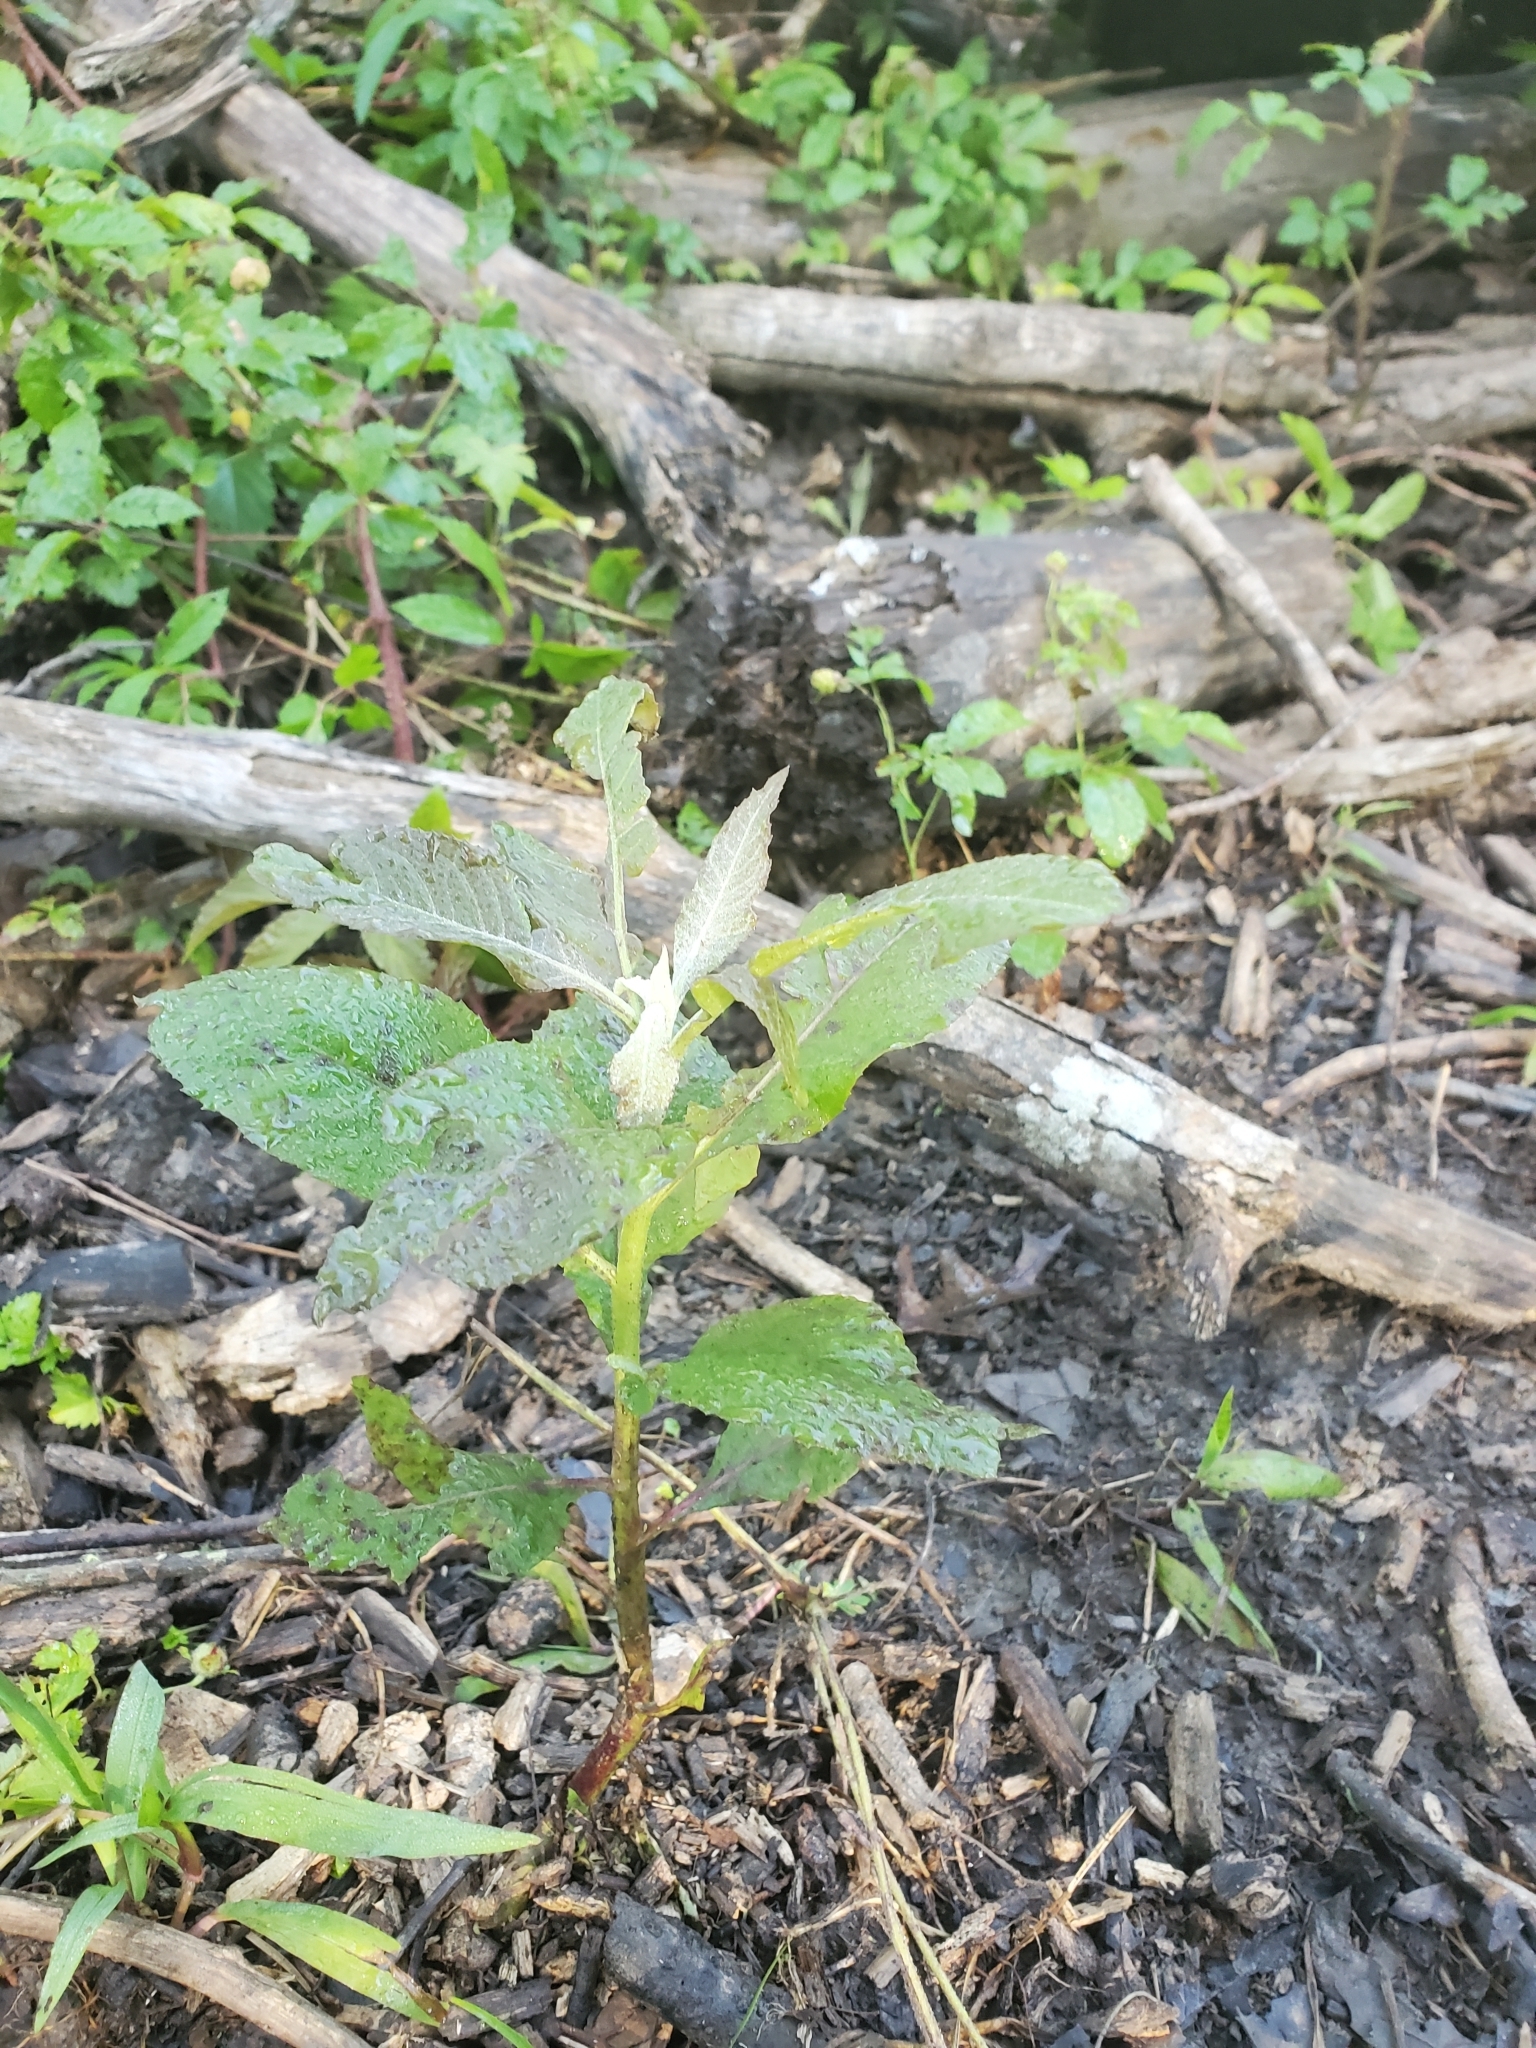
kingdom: Plantae
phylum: Tracheophyta
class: Magnoliopsida
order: Asterales
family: Asteraceae
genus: Pluchea
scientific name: Pluchea camphorata
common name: Camphor pluchea
